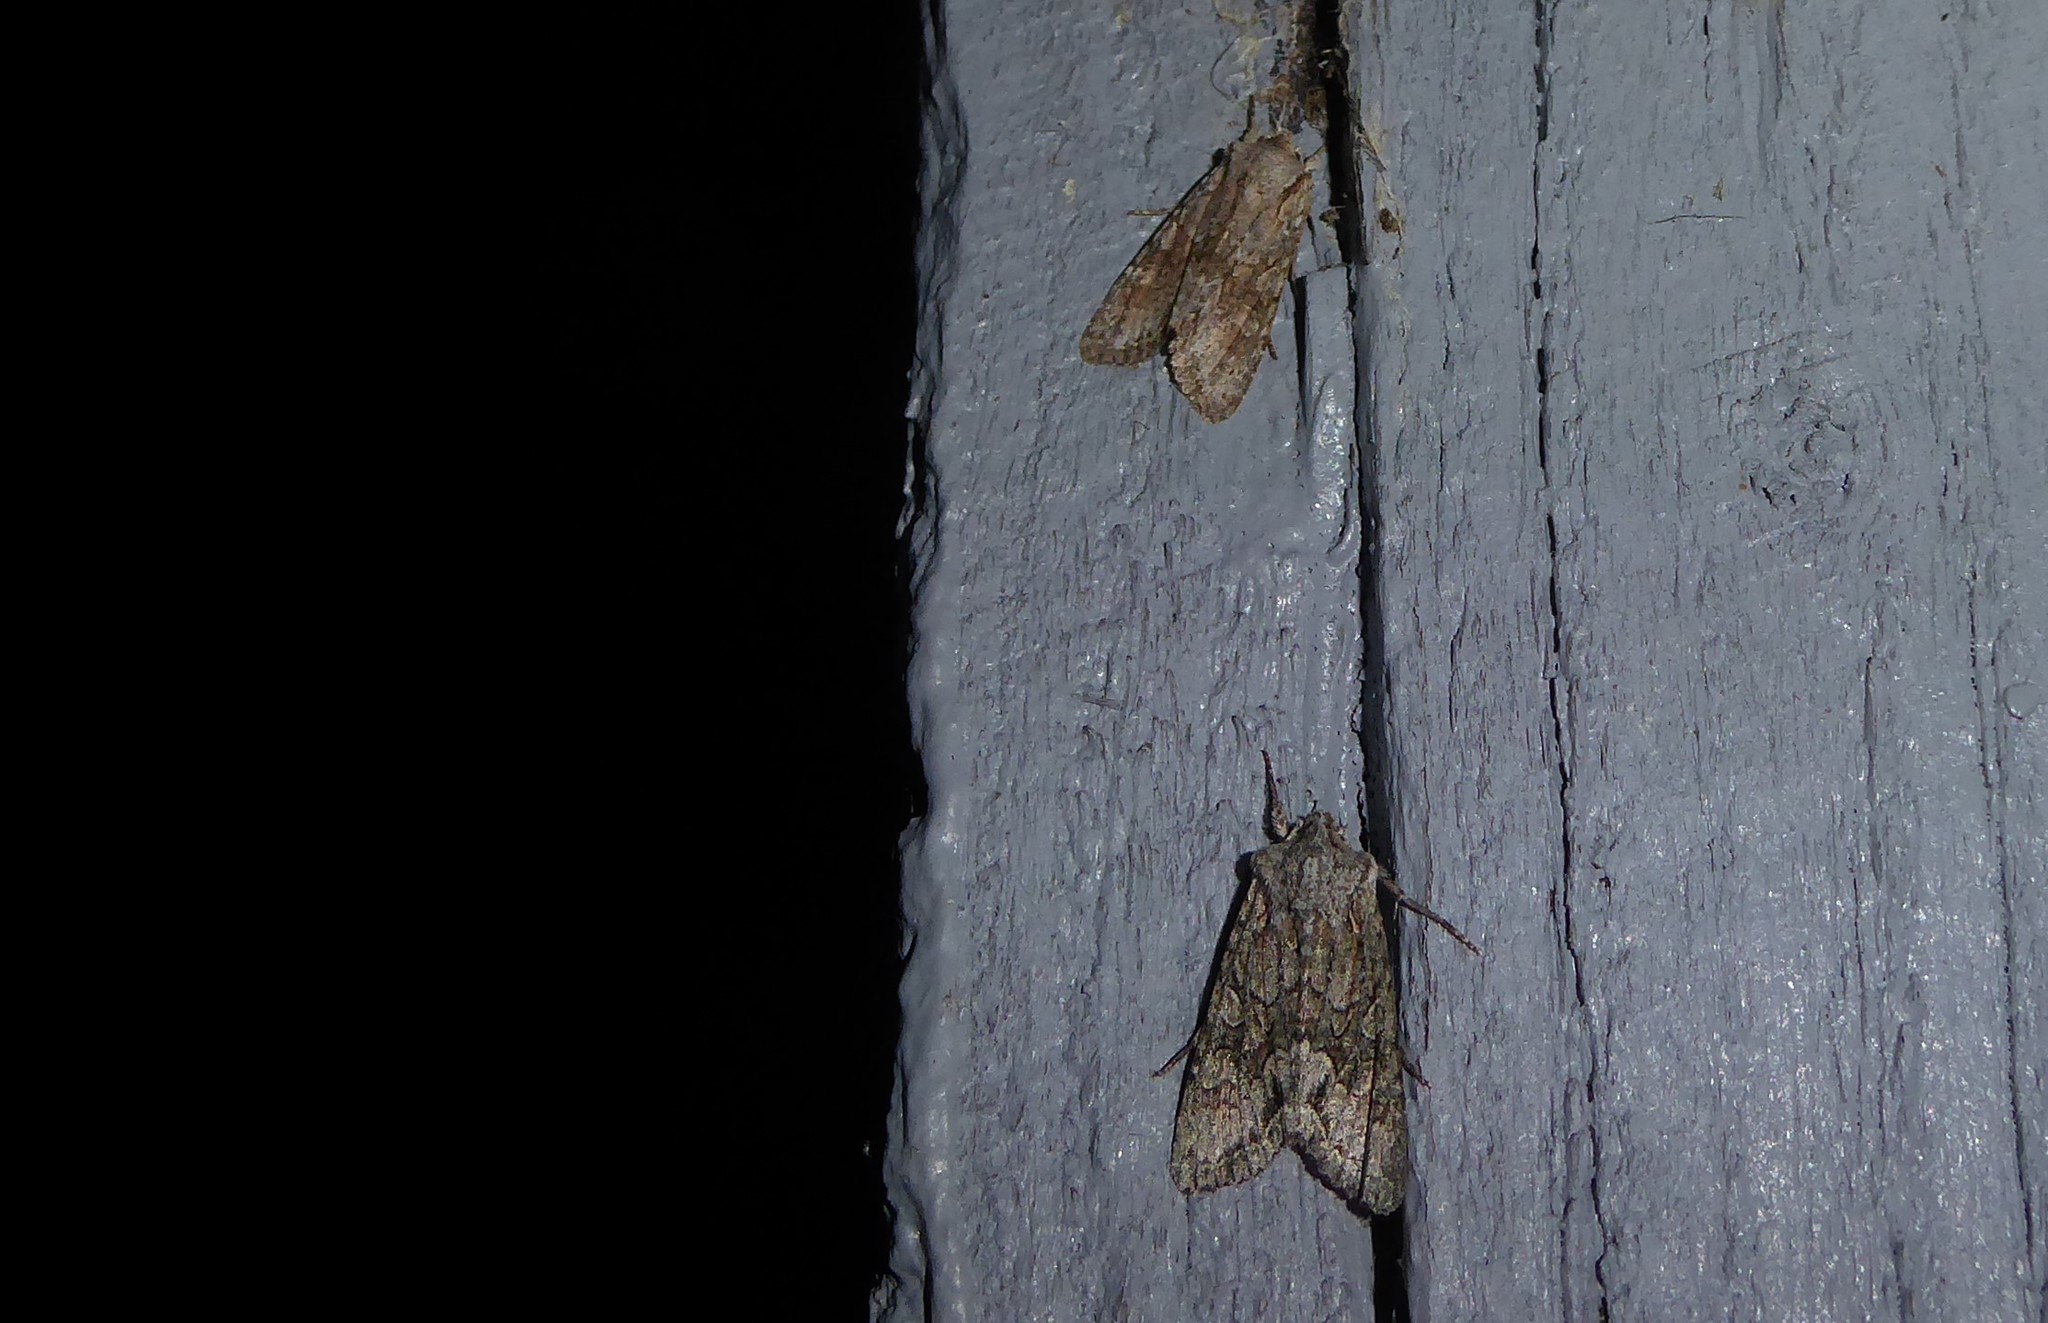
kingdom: Animalia
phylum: Arthropoda
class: Insecta
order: Lepidoptera
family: Noctuidae
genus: Ichneutica
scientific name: Ichneutica mutans
